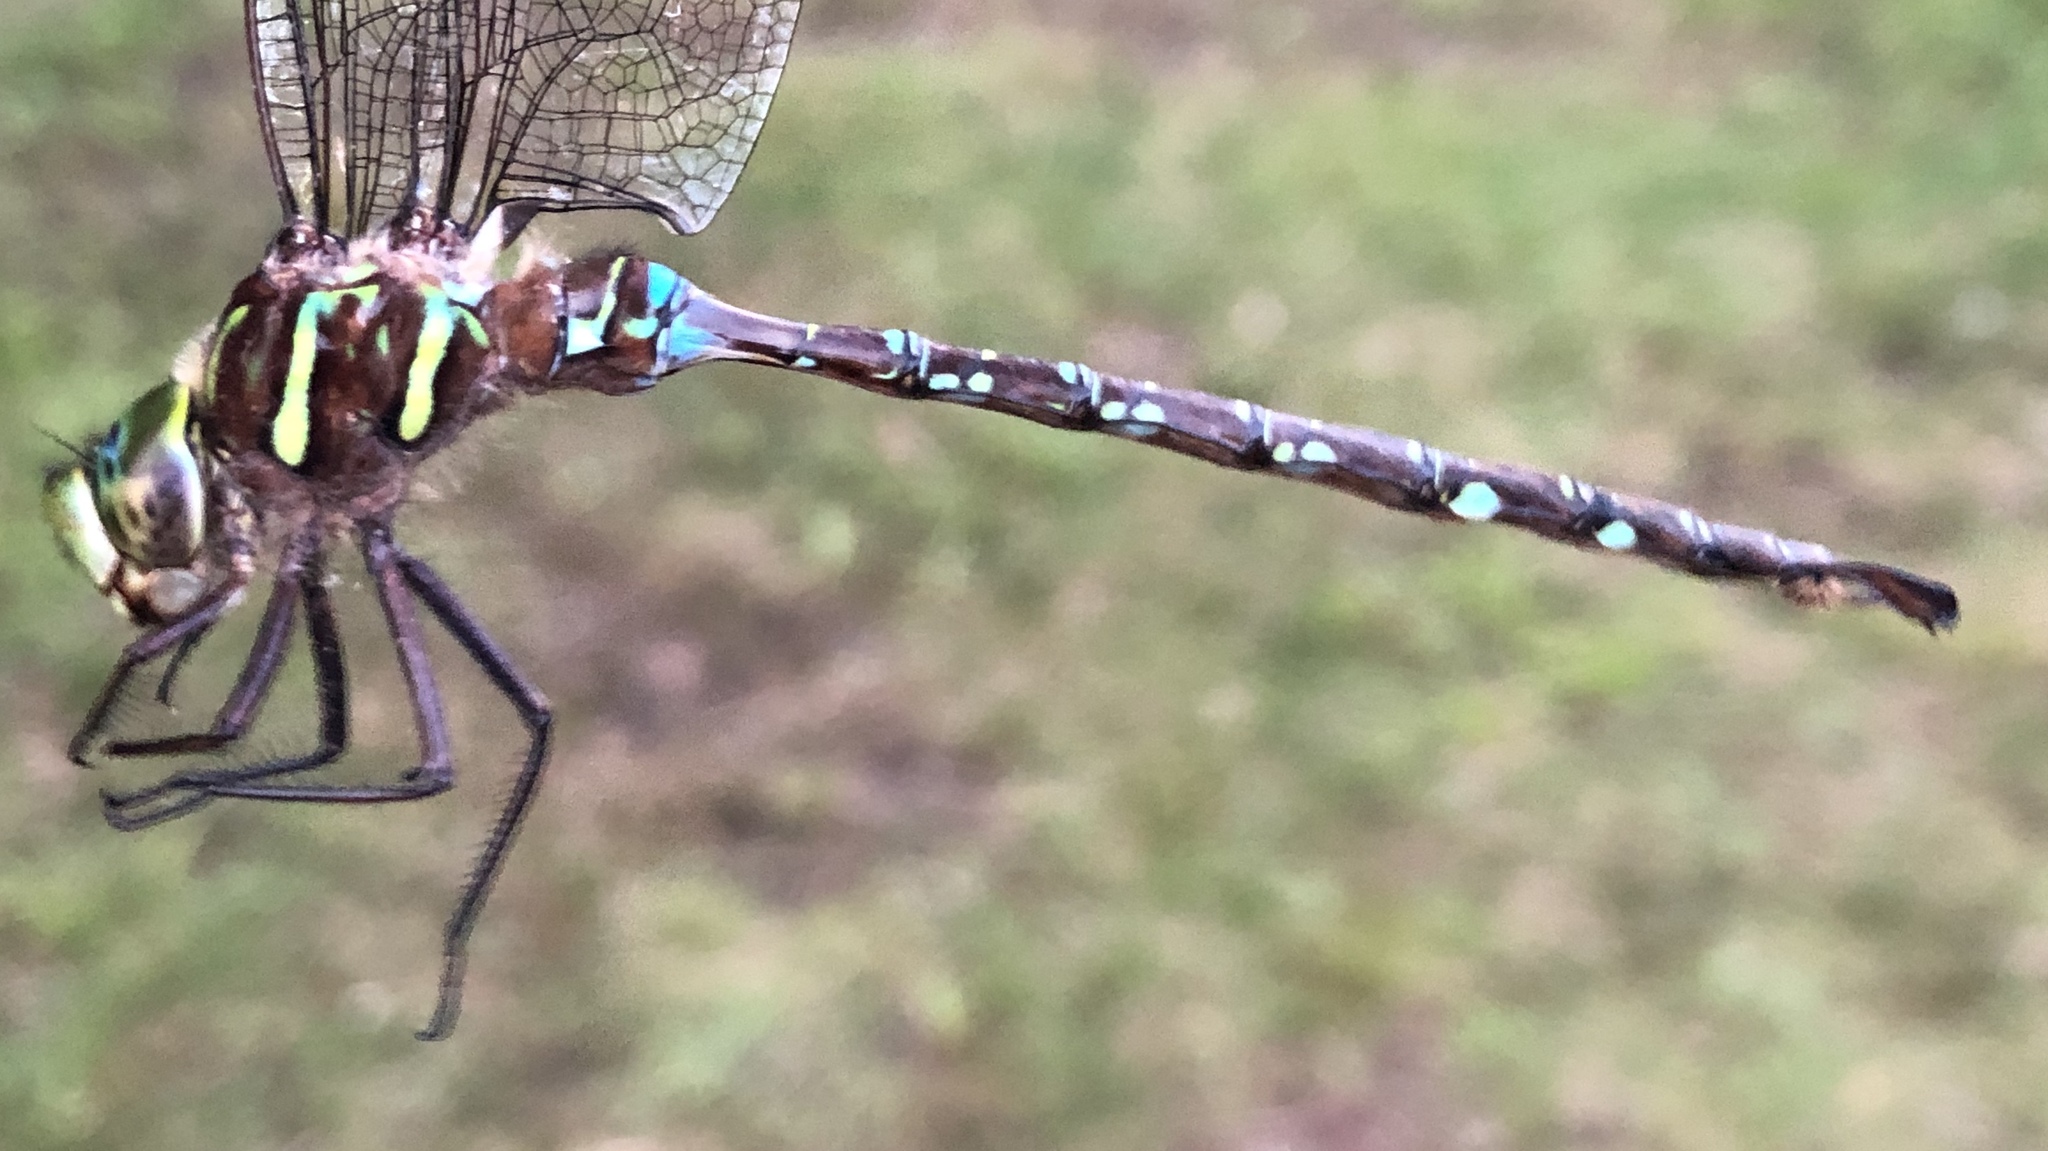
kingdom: Animalia
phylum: Arthropoda
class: Insecta
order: Odonata
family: Aeshnidae
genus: Aeshna
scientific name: Aeshna umbrosa
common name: Shadow darner
